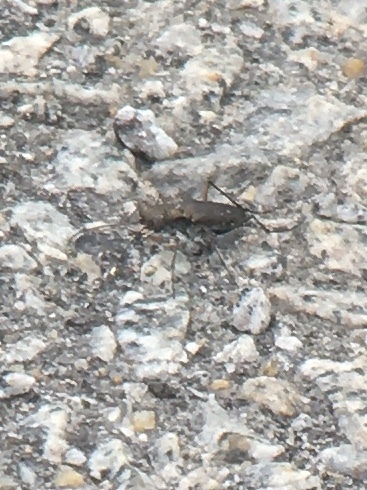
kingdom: Animalia
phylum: Arthropoda
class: Insecta
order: Coleoptera
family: Carabidae
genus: Cicindela
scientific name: Cicindela punctulata
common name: Punctured tiger beetle
